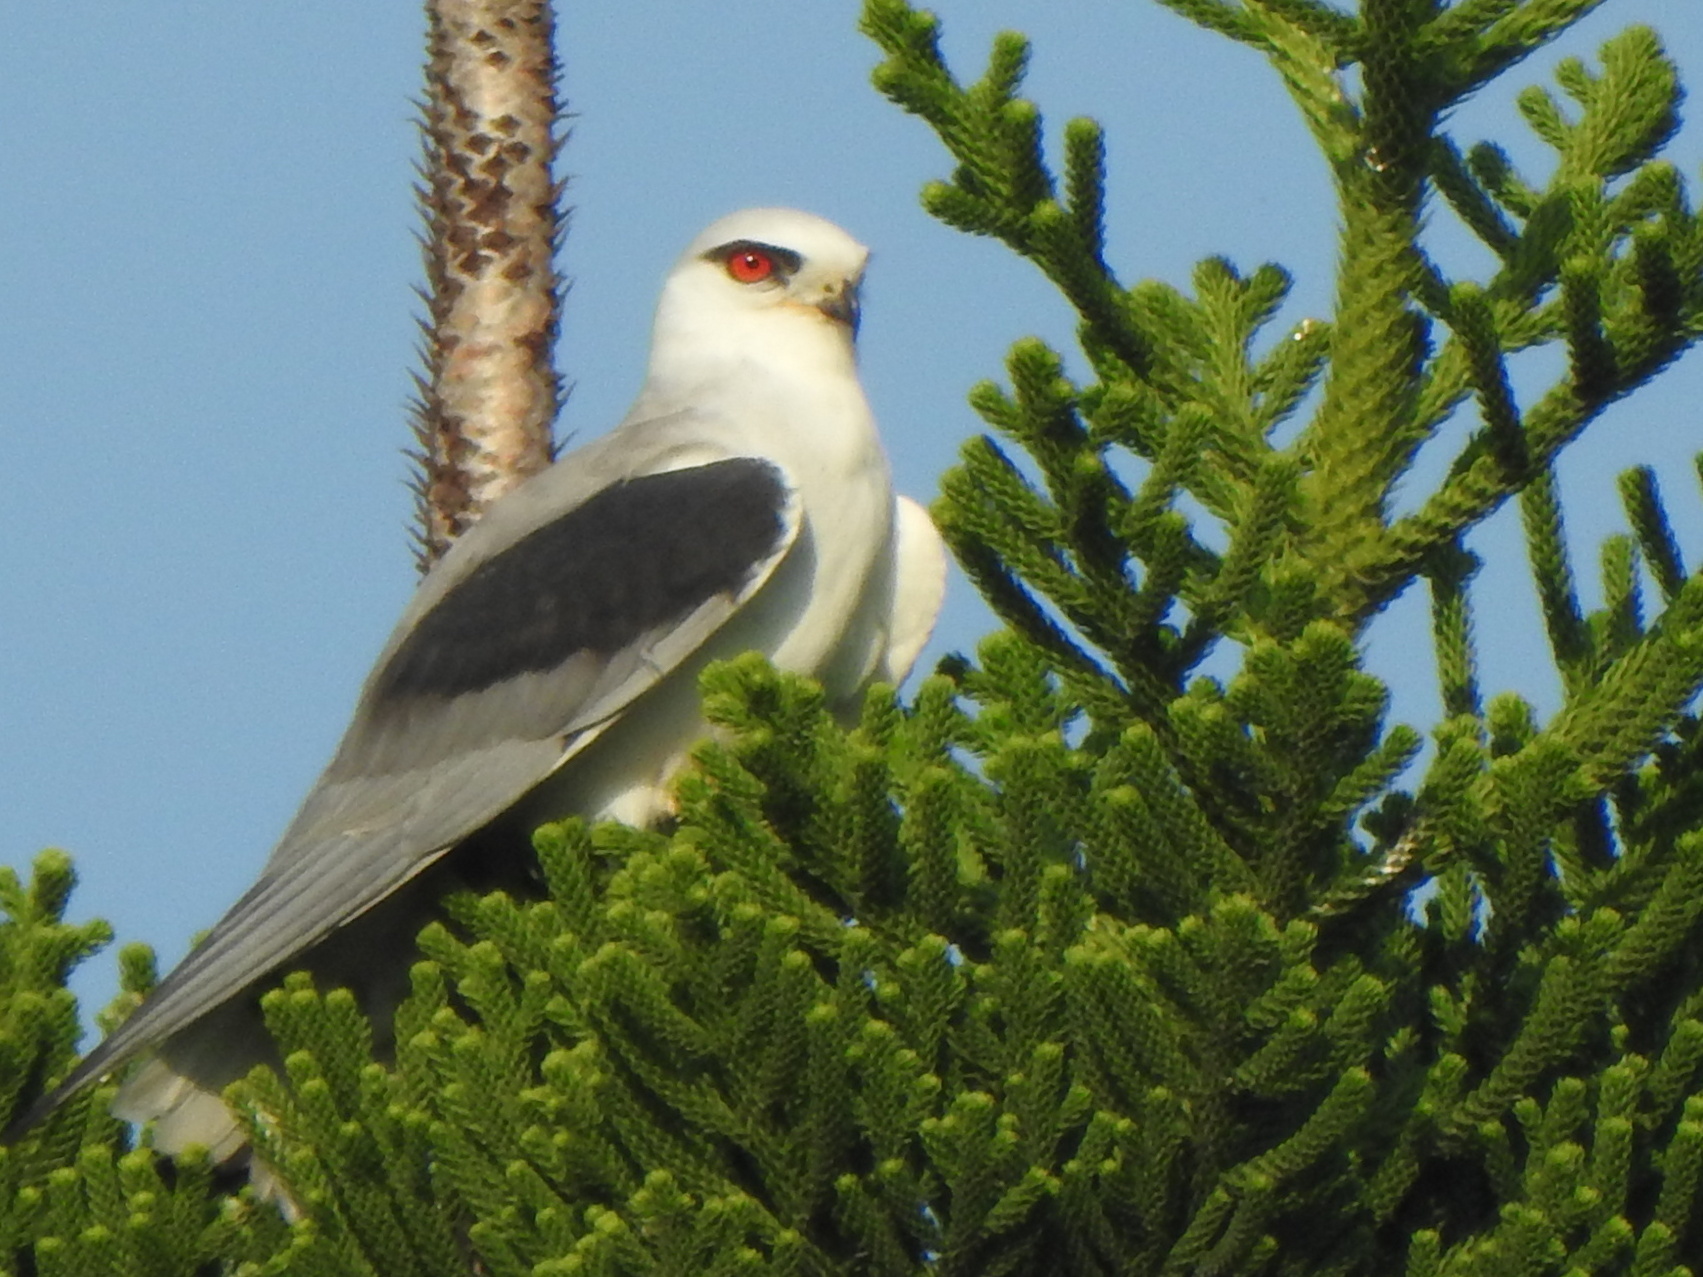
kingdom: Animalia
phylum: Chordata
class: Aves
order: Accipitriformes
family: Accipitridae
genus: Elanus
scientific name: Elanus caeruleus
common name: Black-winged kite
